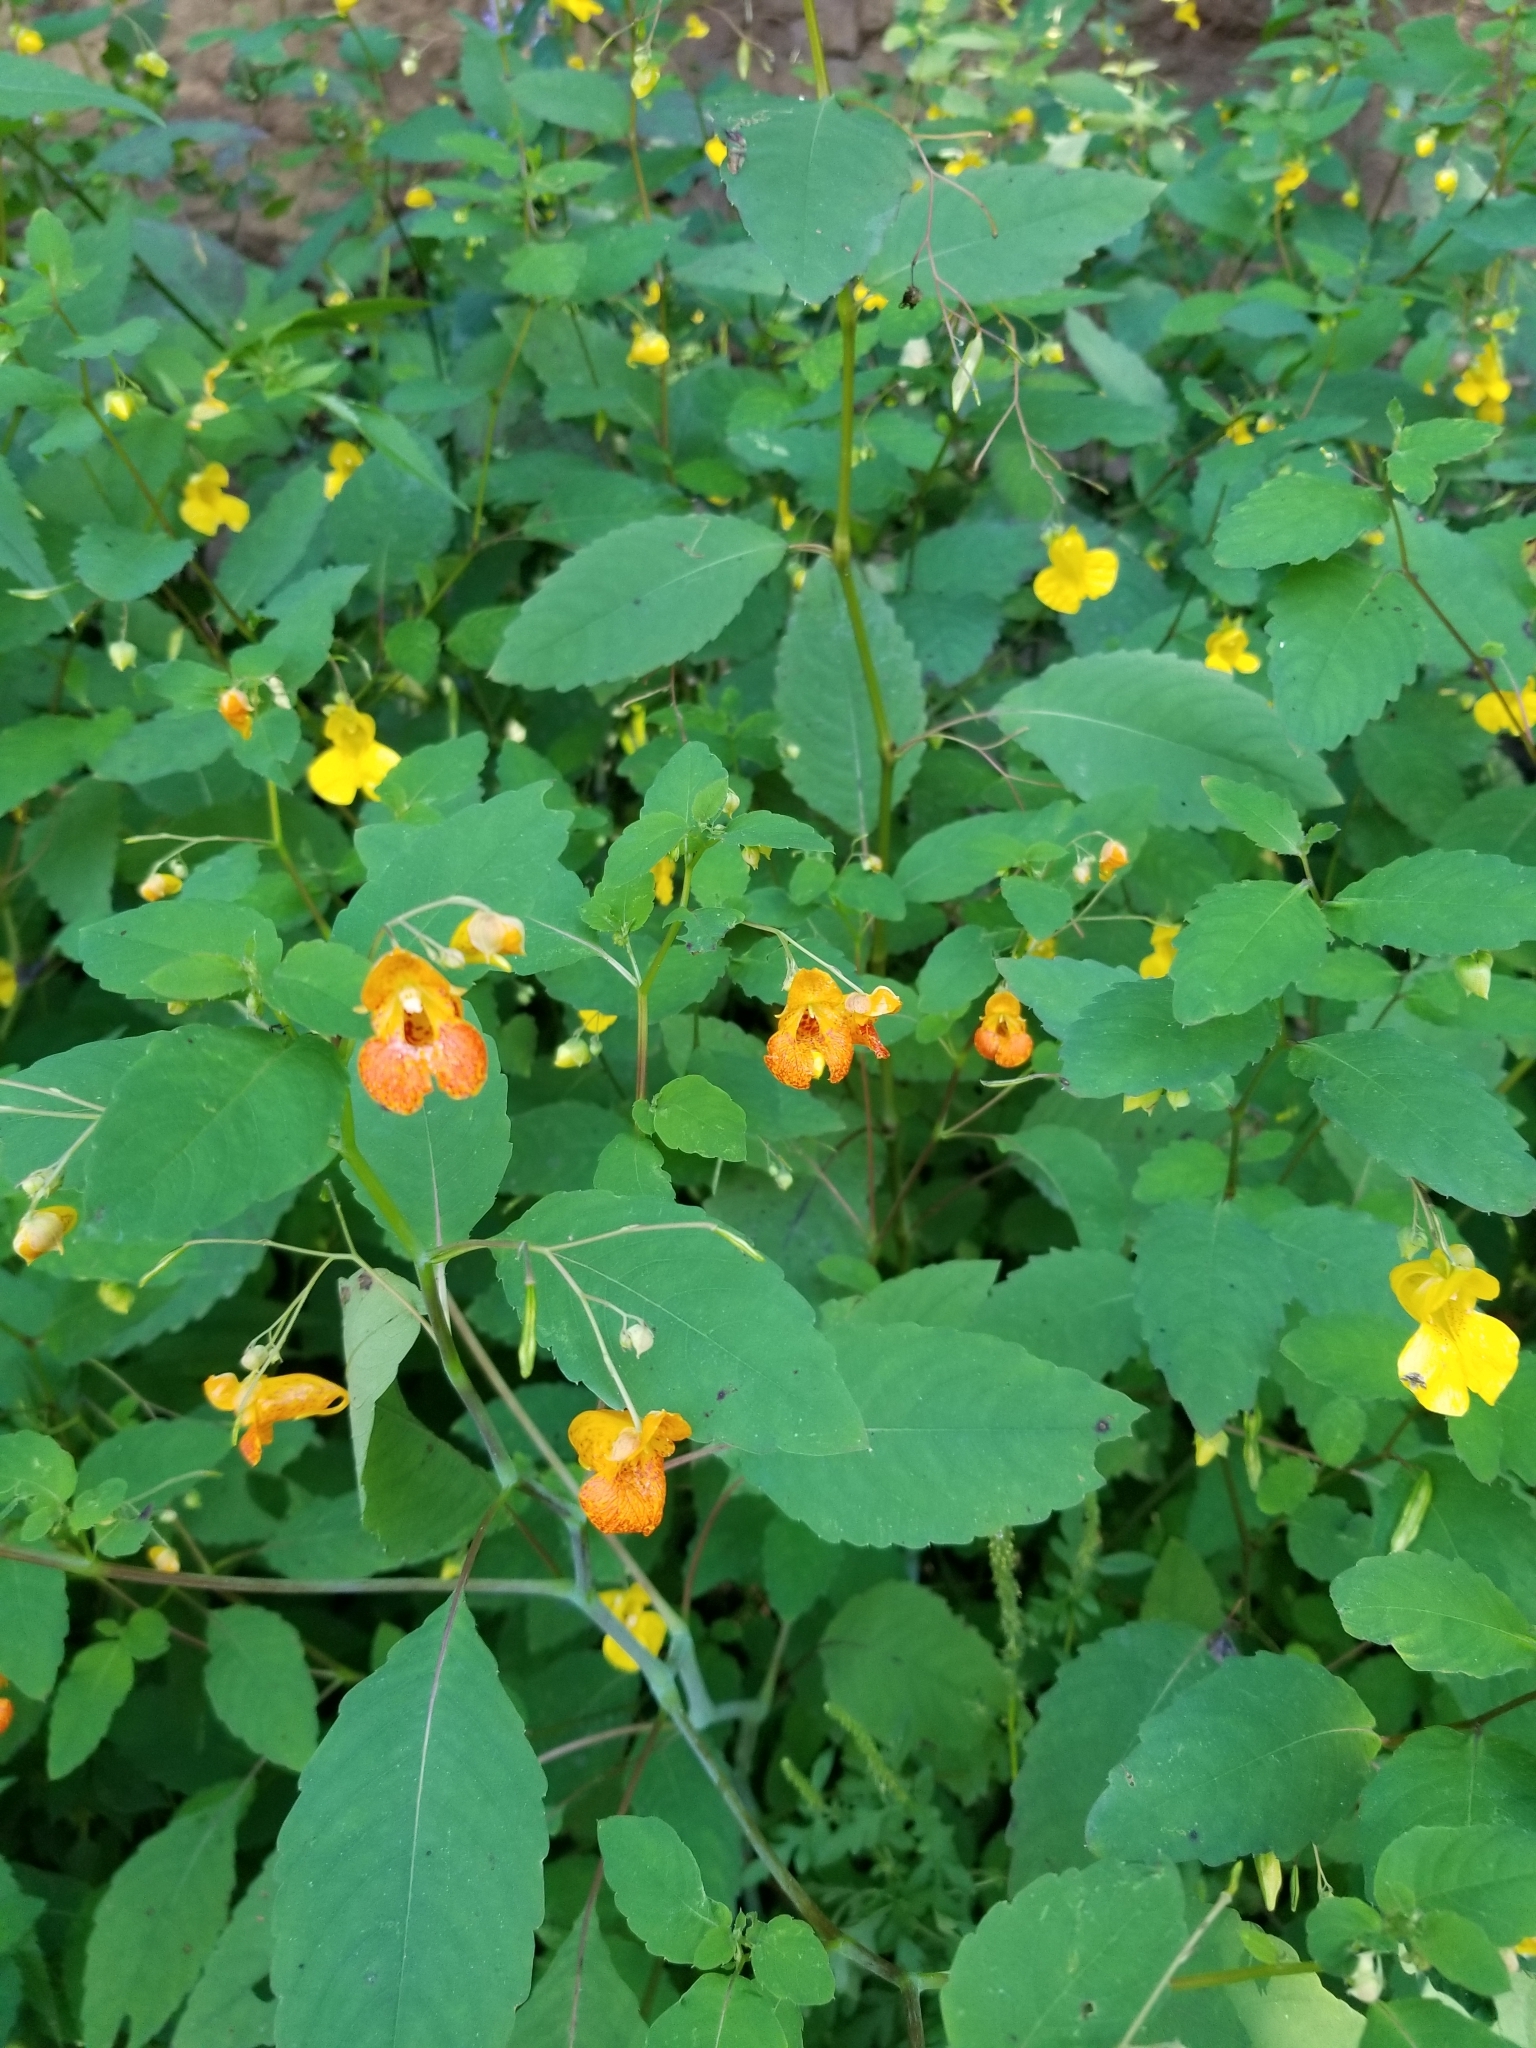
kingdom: Plantae
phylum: Tracheophyta
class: Magnoliopsida
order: Ericales
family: Balsaminaceae
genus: Impatiens
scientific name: Impatiens capensis
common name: Orange balsam
